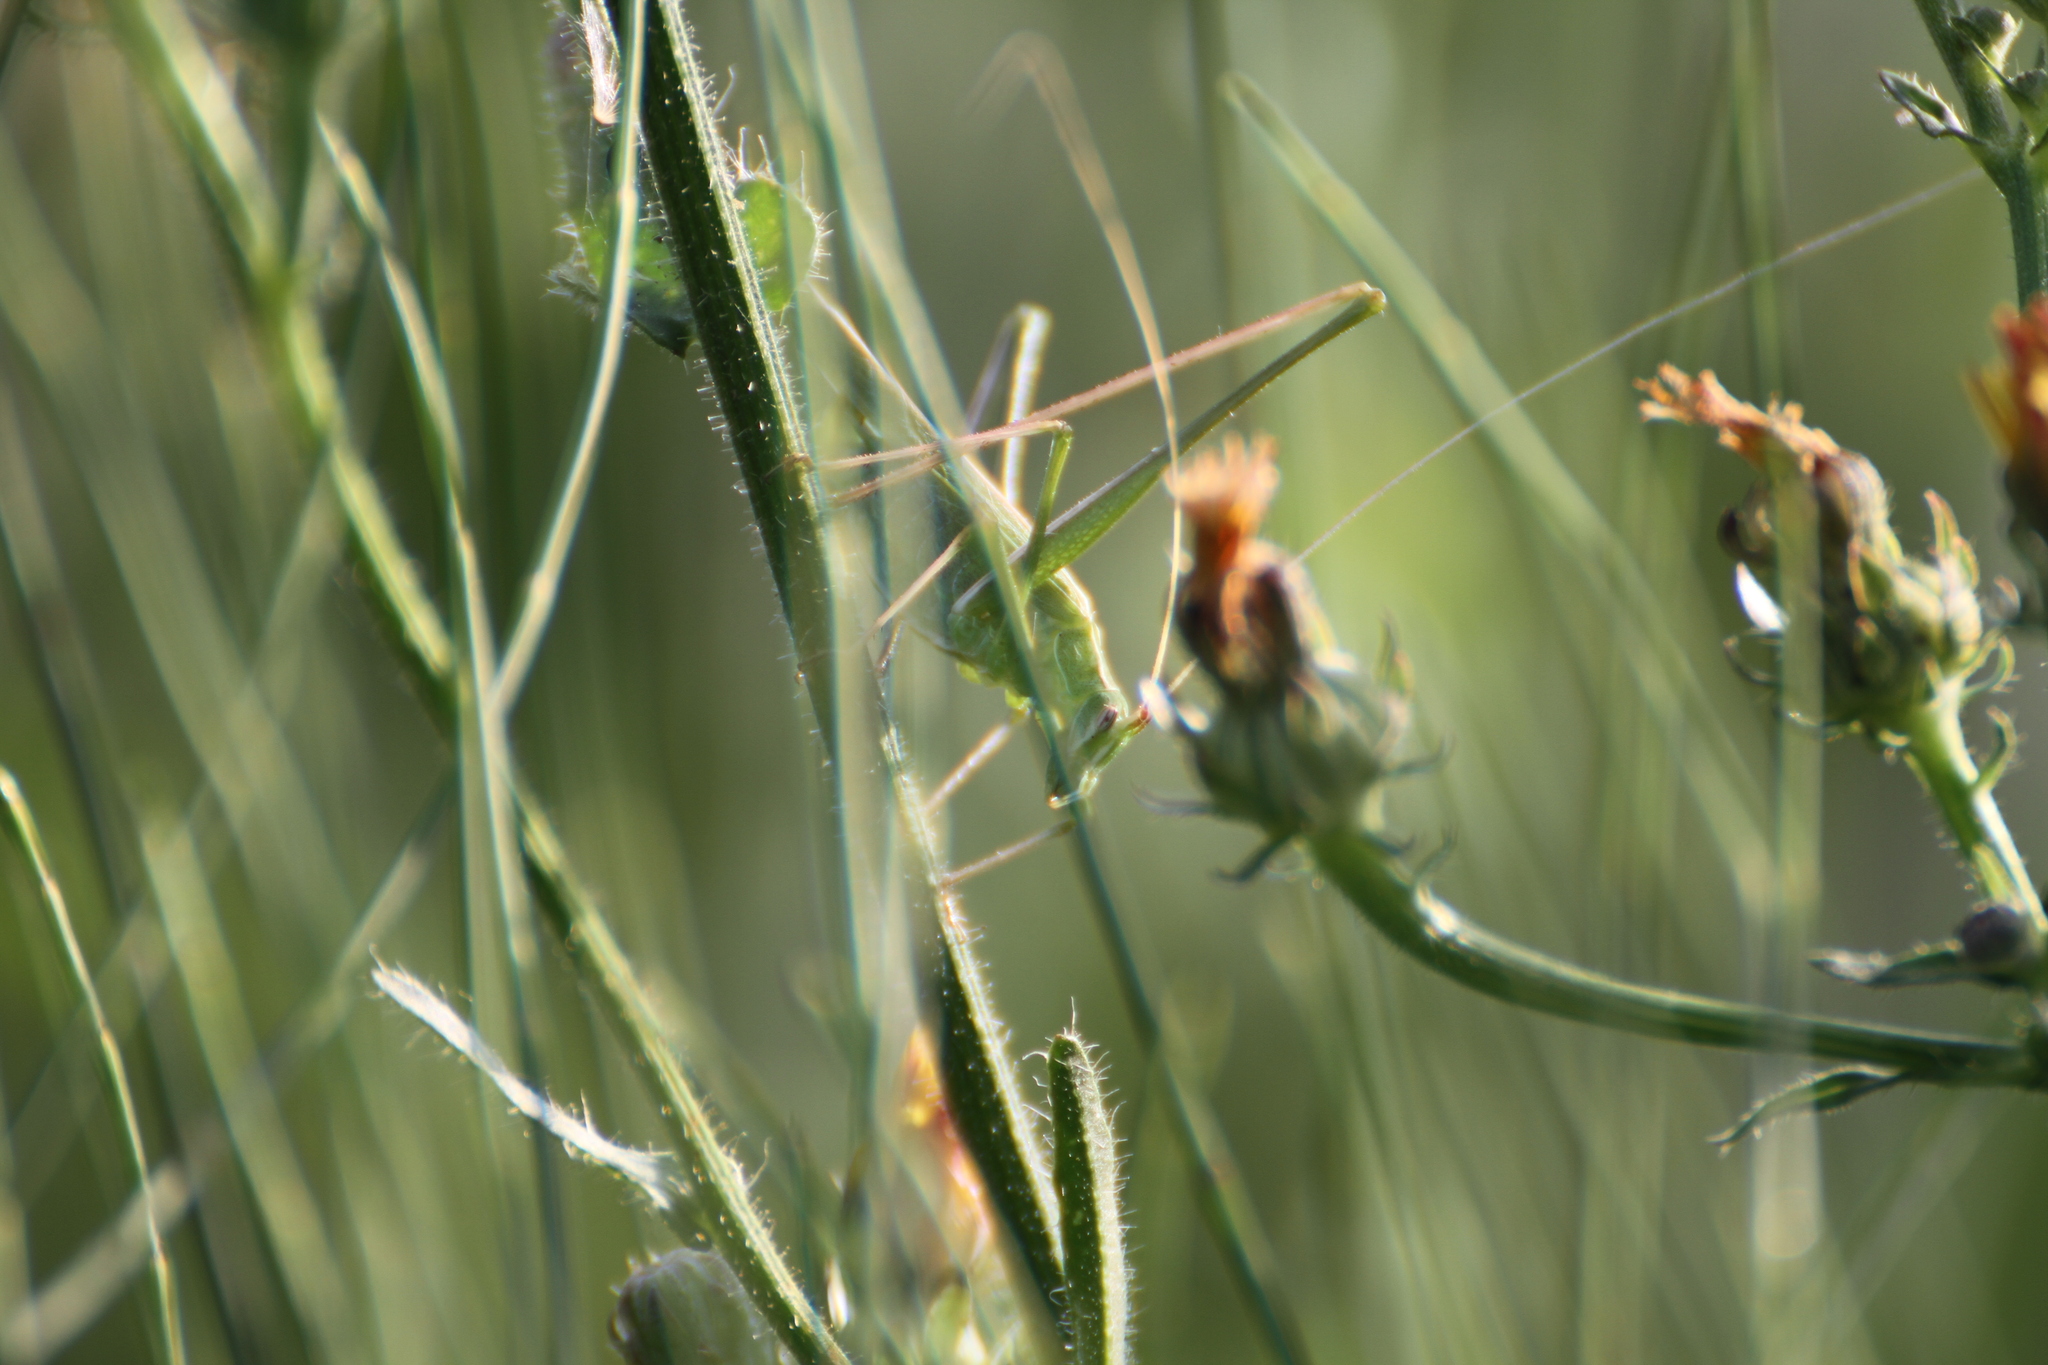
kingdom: Animalia
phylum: Arthropoda
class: Insecta
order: Orthoptera
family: Tettigoniidae
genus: Tylopsis
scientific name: Tylopsis lilifolia
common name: Lily bush-cricket
